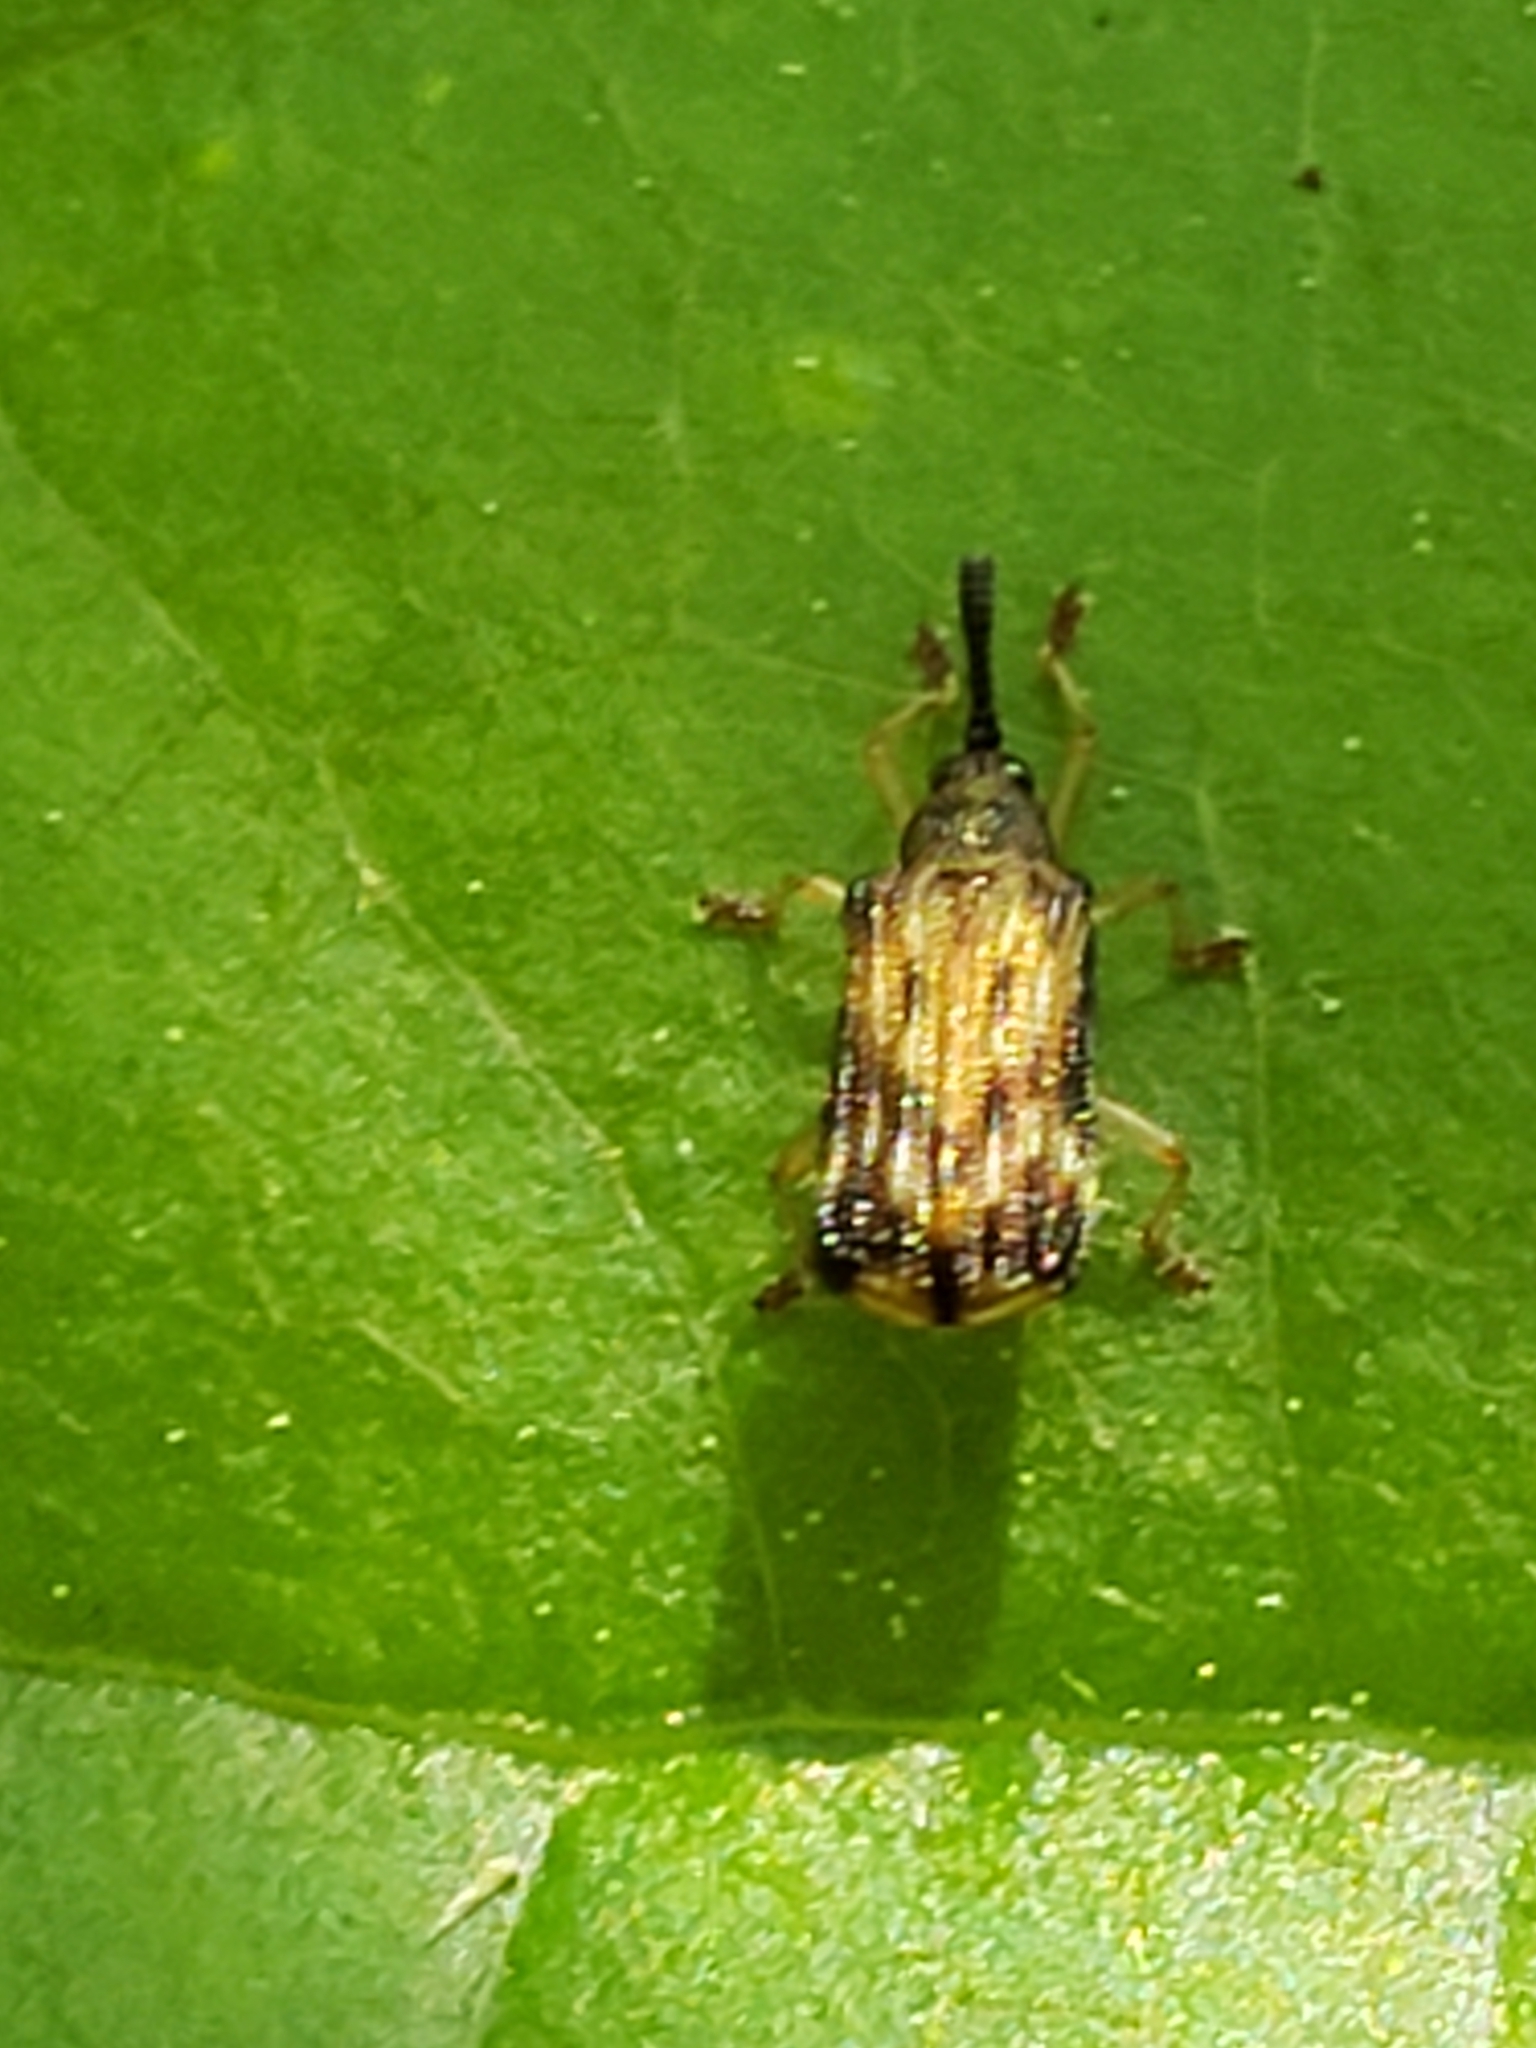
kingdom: Animalia
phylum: Arthropoda
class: Insecta
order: Coleoptera
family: Chrysomelidae
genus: Sumitrosis
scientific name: Sumitrosis inaequalis
